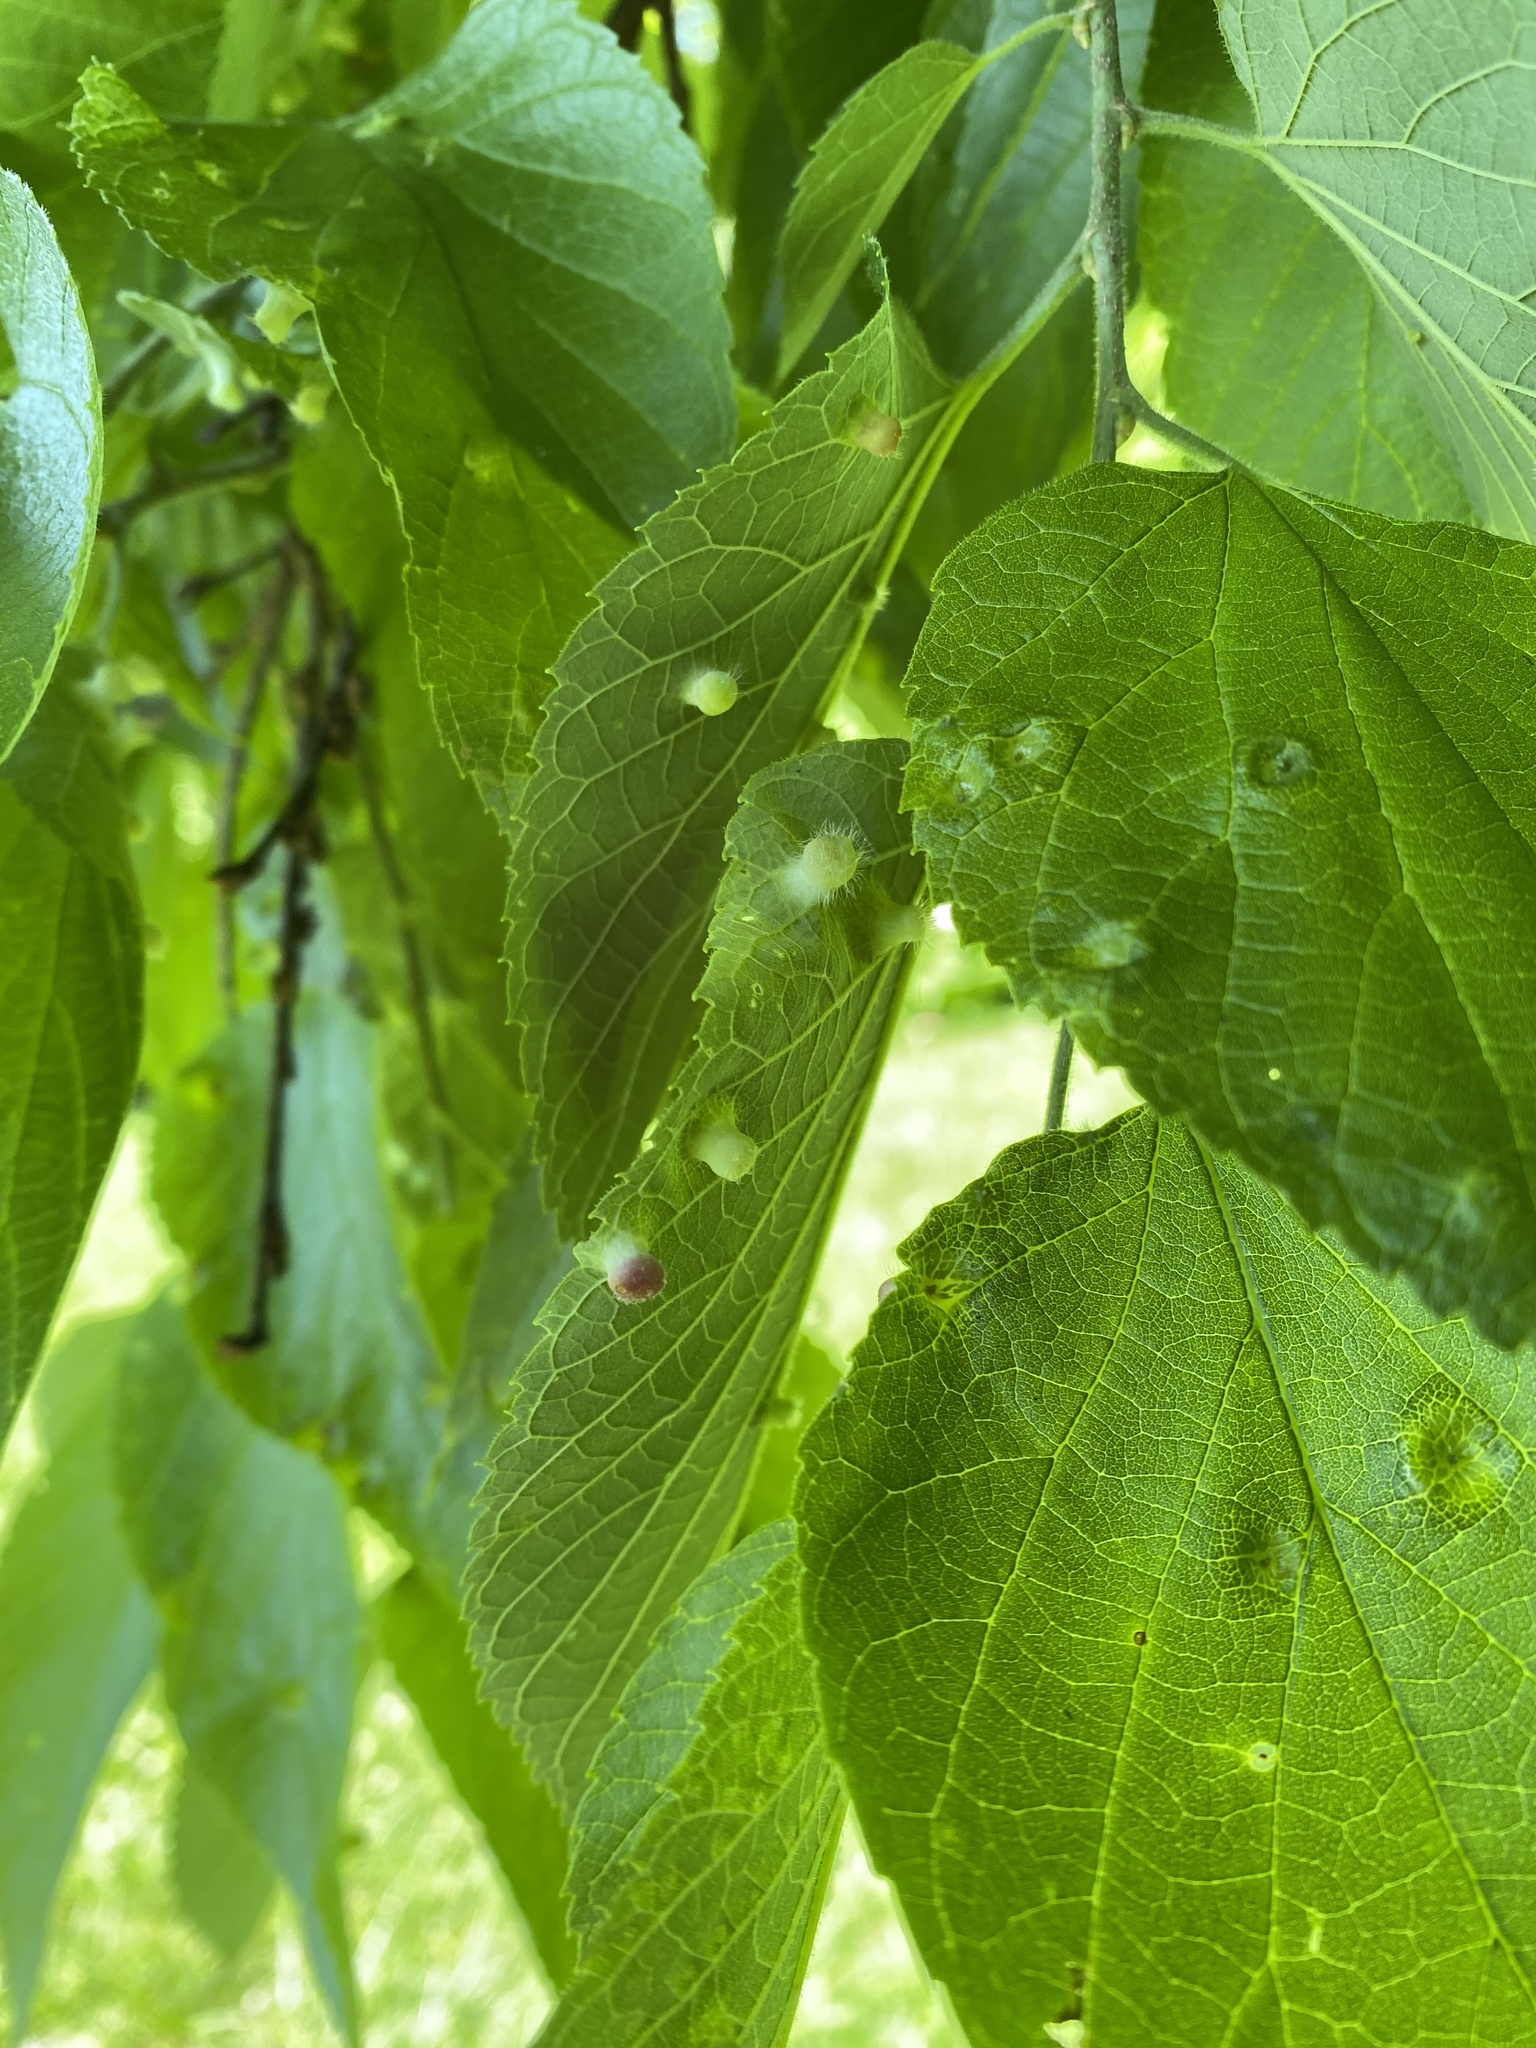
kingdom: Animalia
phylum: Arthropoda
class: Insecta
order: Hemiptera
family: Aphalaridae
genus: Pachypsylla
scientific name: Pachypsylla celtidismamma
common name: Hackberry nipplegall psyllid
